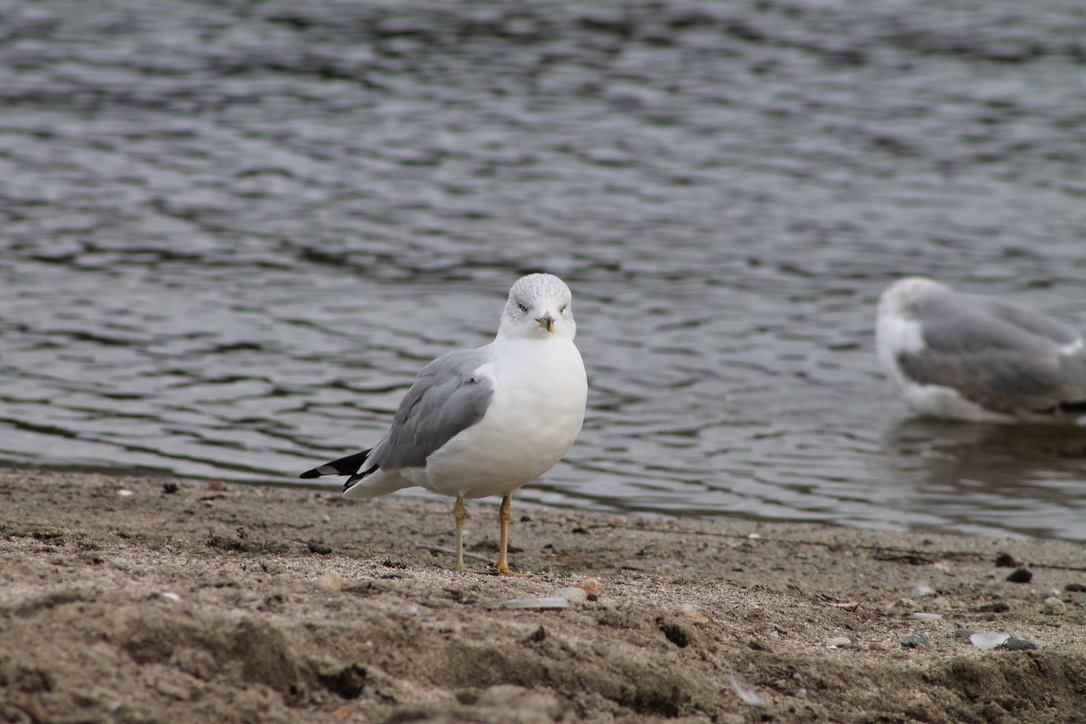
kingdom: Animalia
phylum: Chordata
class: Aves
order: Charadriiformes
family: Laridae
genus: Larus
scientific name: Larus delawarensis
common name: Ring-billed gull
